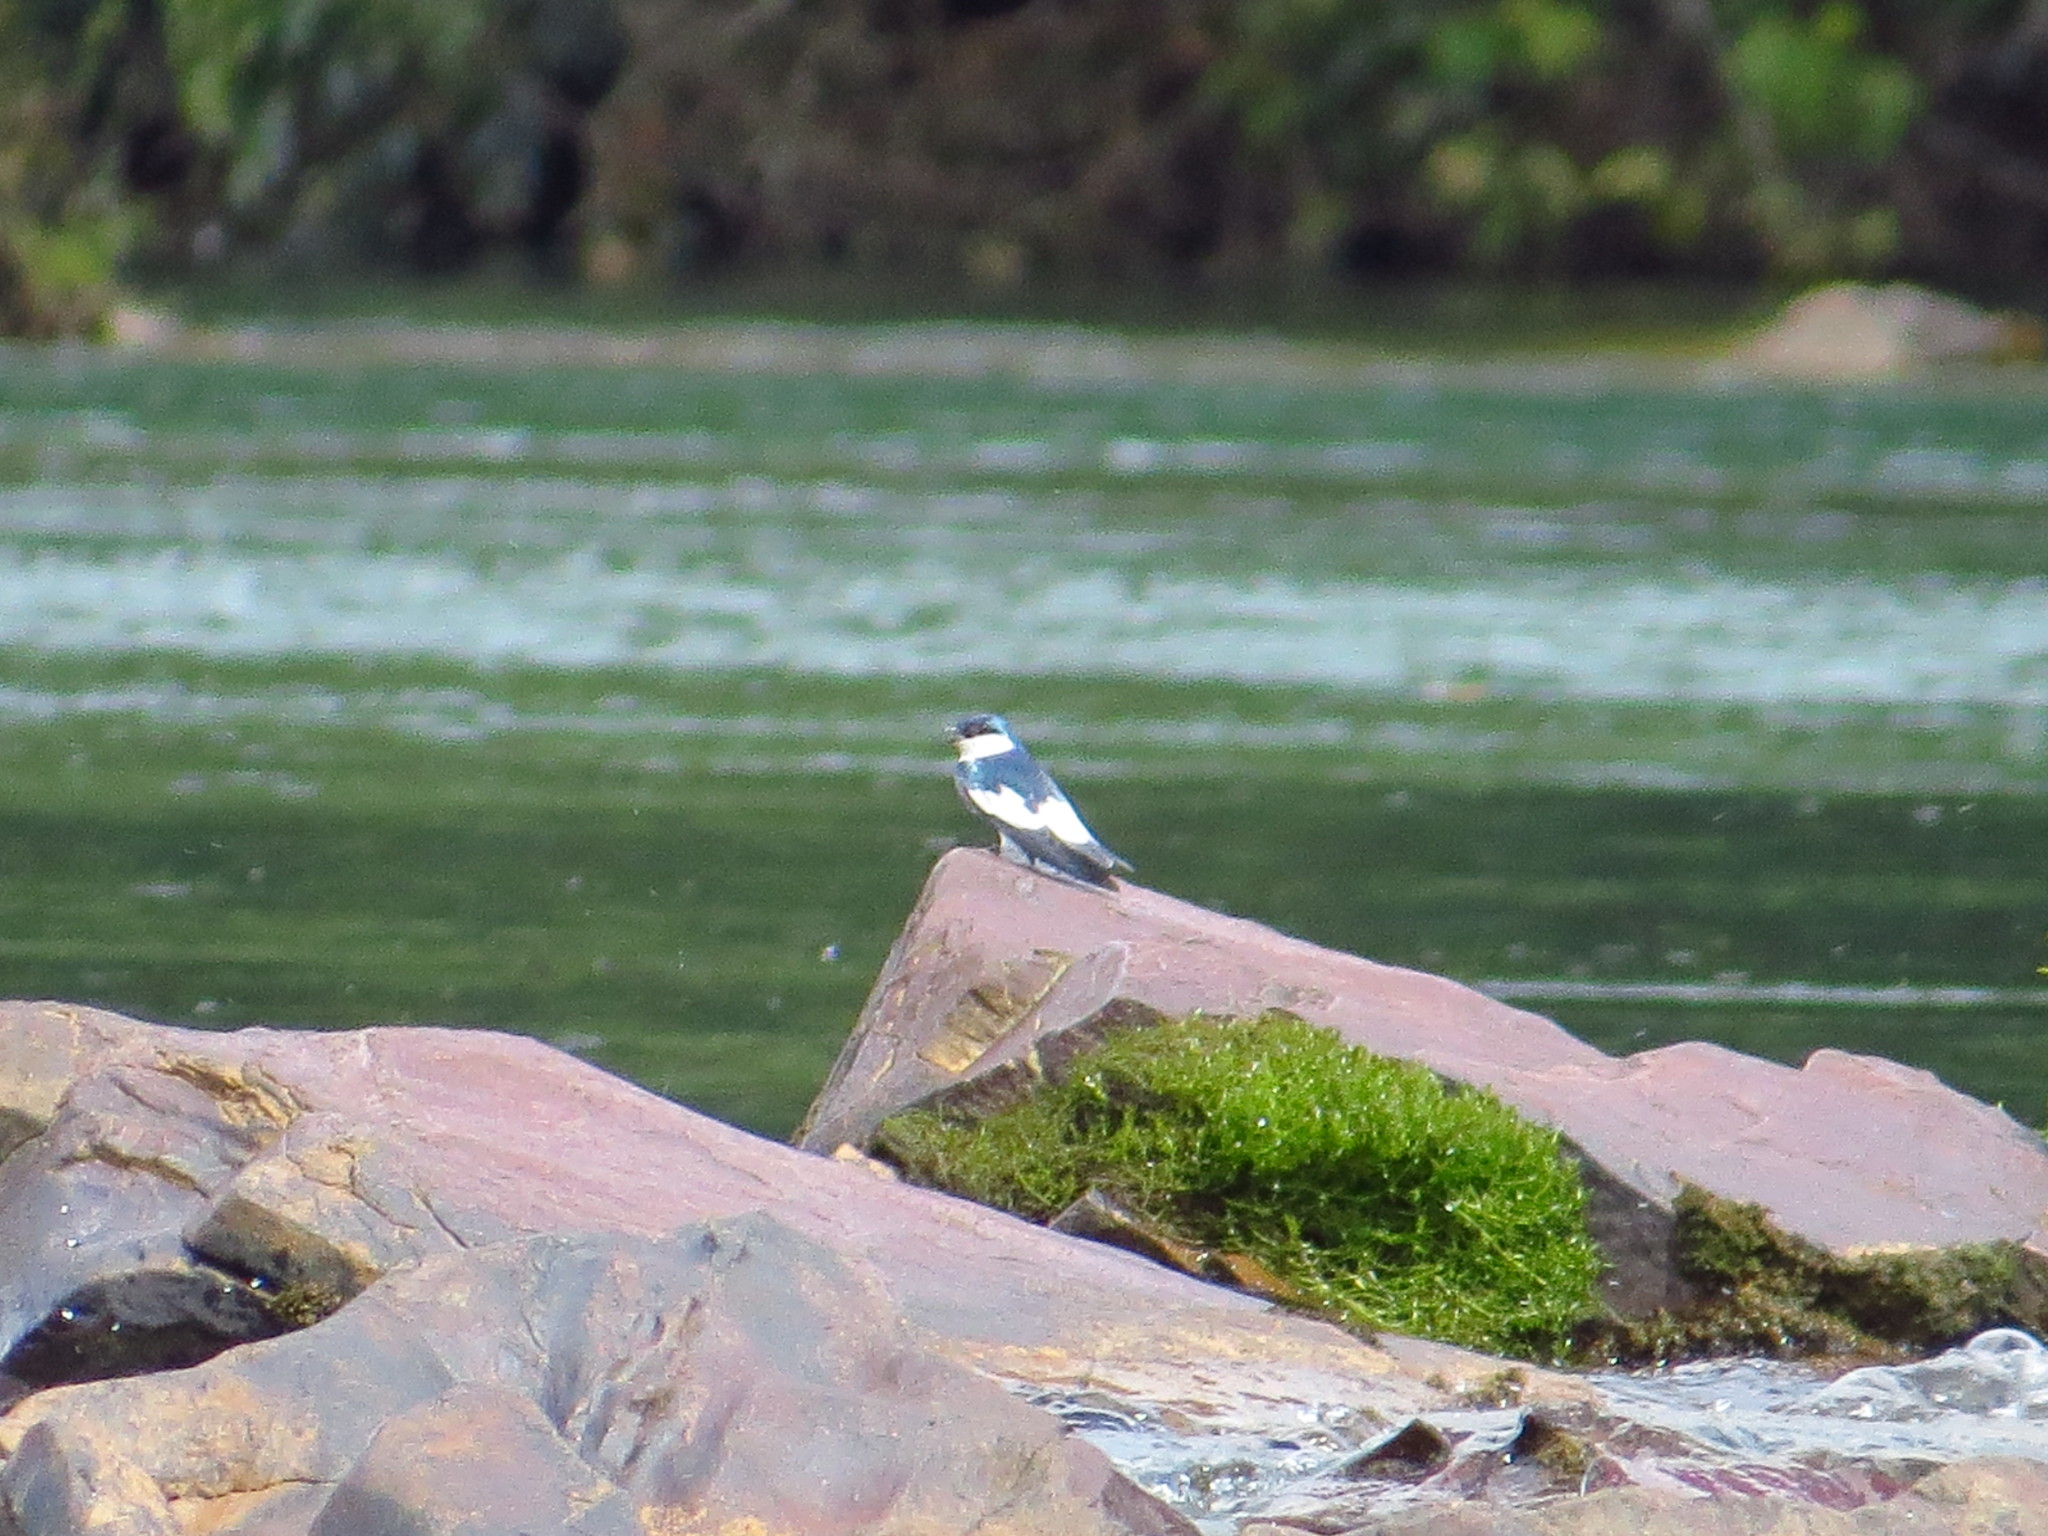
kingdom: Animalia
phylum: Chordata
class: Aves
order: Passeriformes
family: Hirundinidae
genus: Tachycineta
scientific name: Tachycineta albiventer
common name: White-winged swallow
